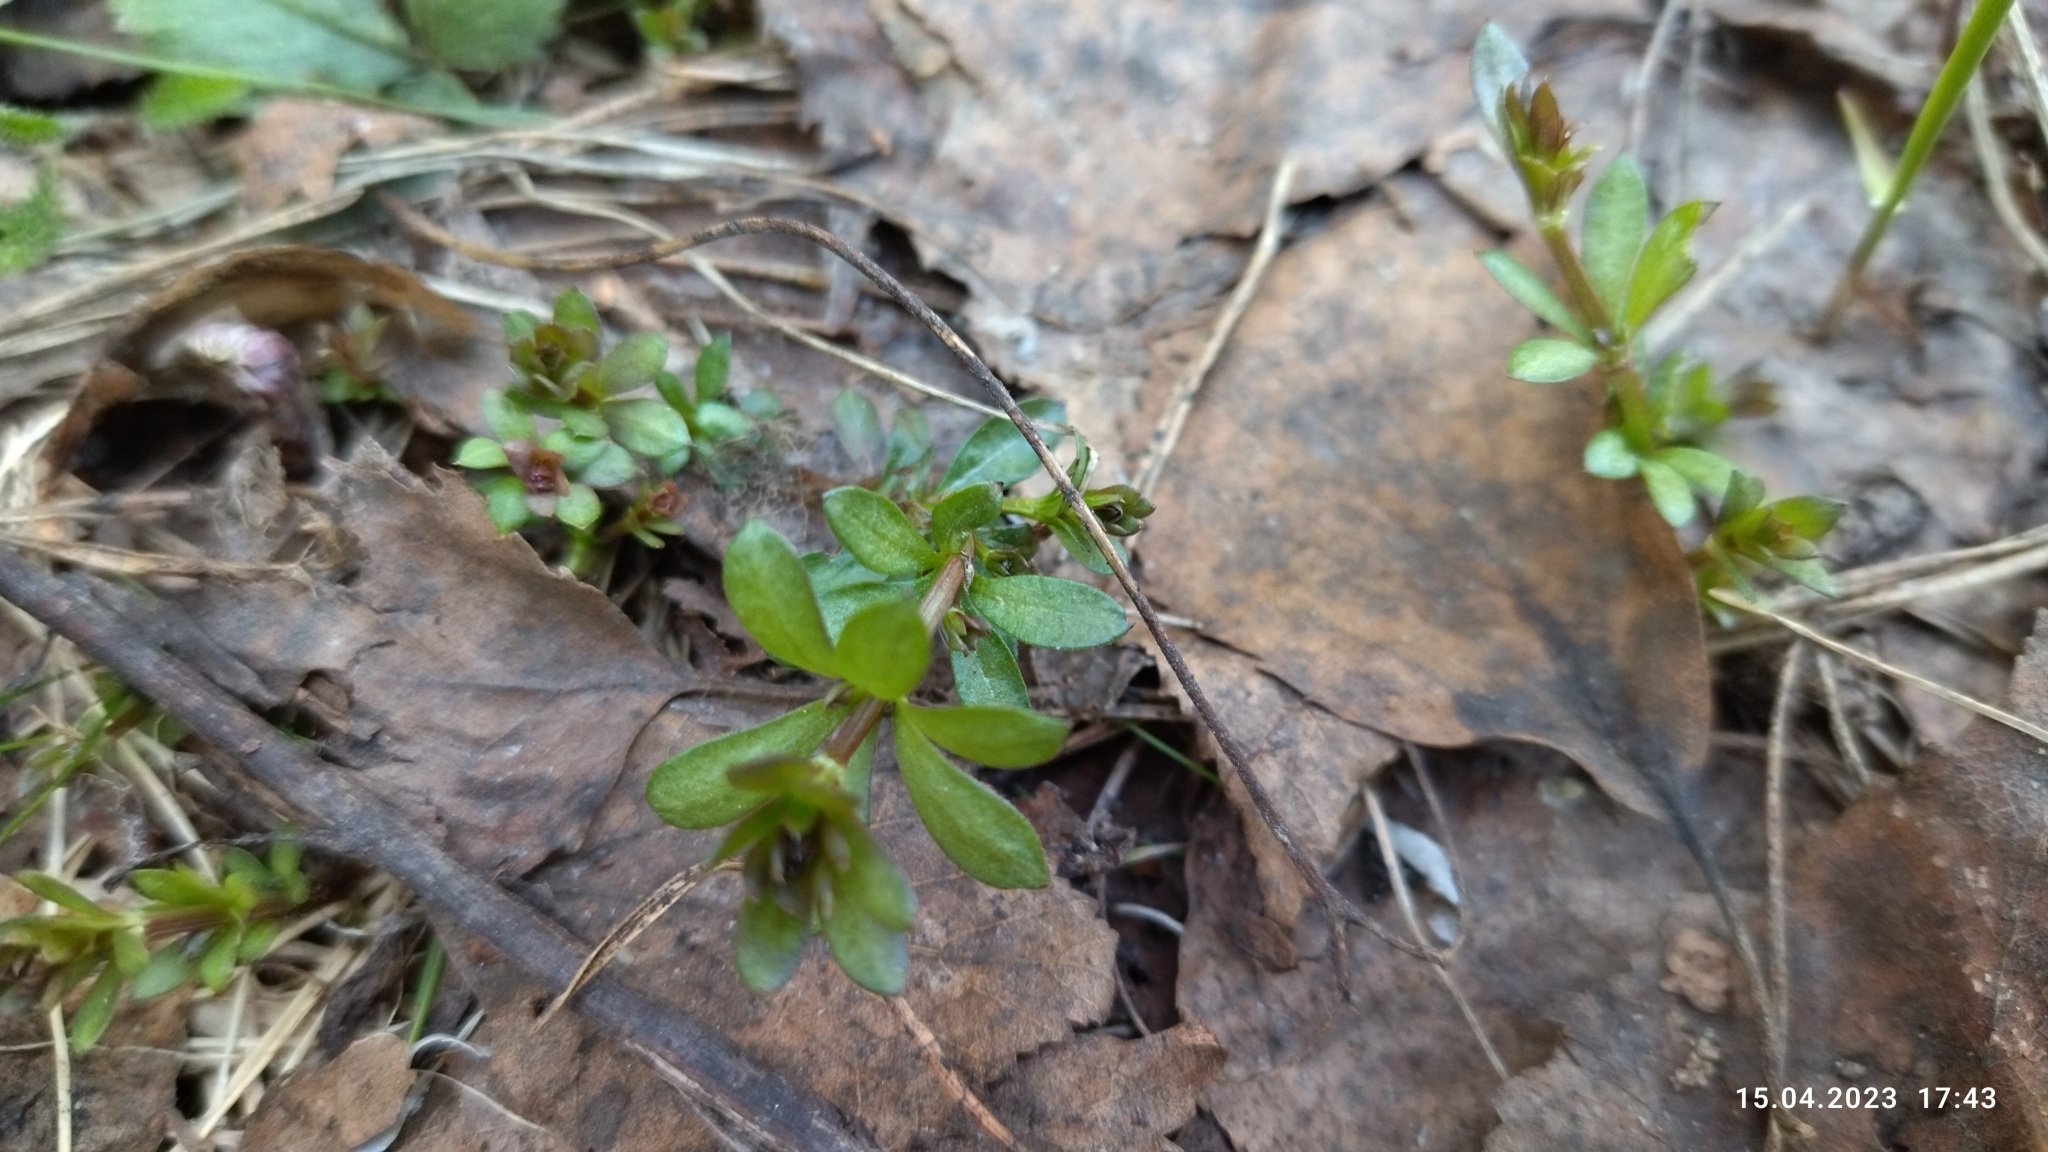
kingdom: Plantae
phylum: Tracheophyta
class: Magnoliopsida
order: Gentianales
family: Rubiaceae
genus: Galium
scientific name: Galium mollugo
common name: Hedge bedstraw
